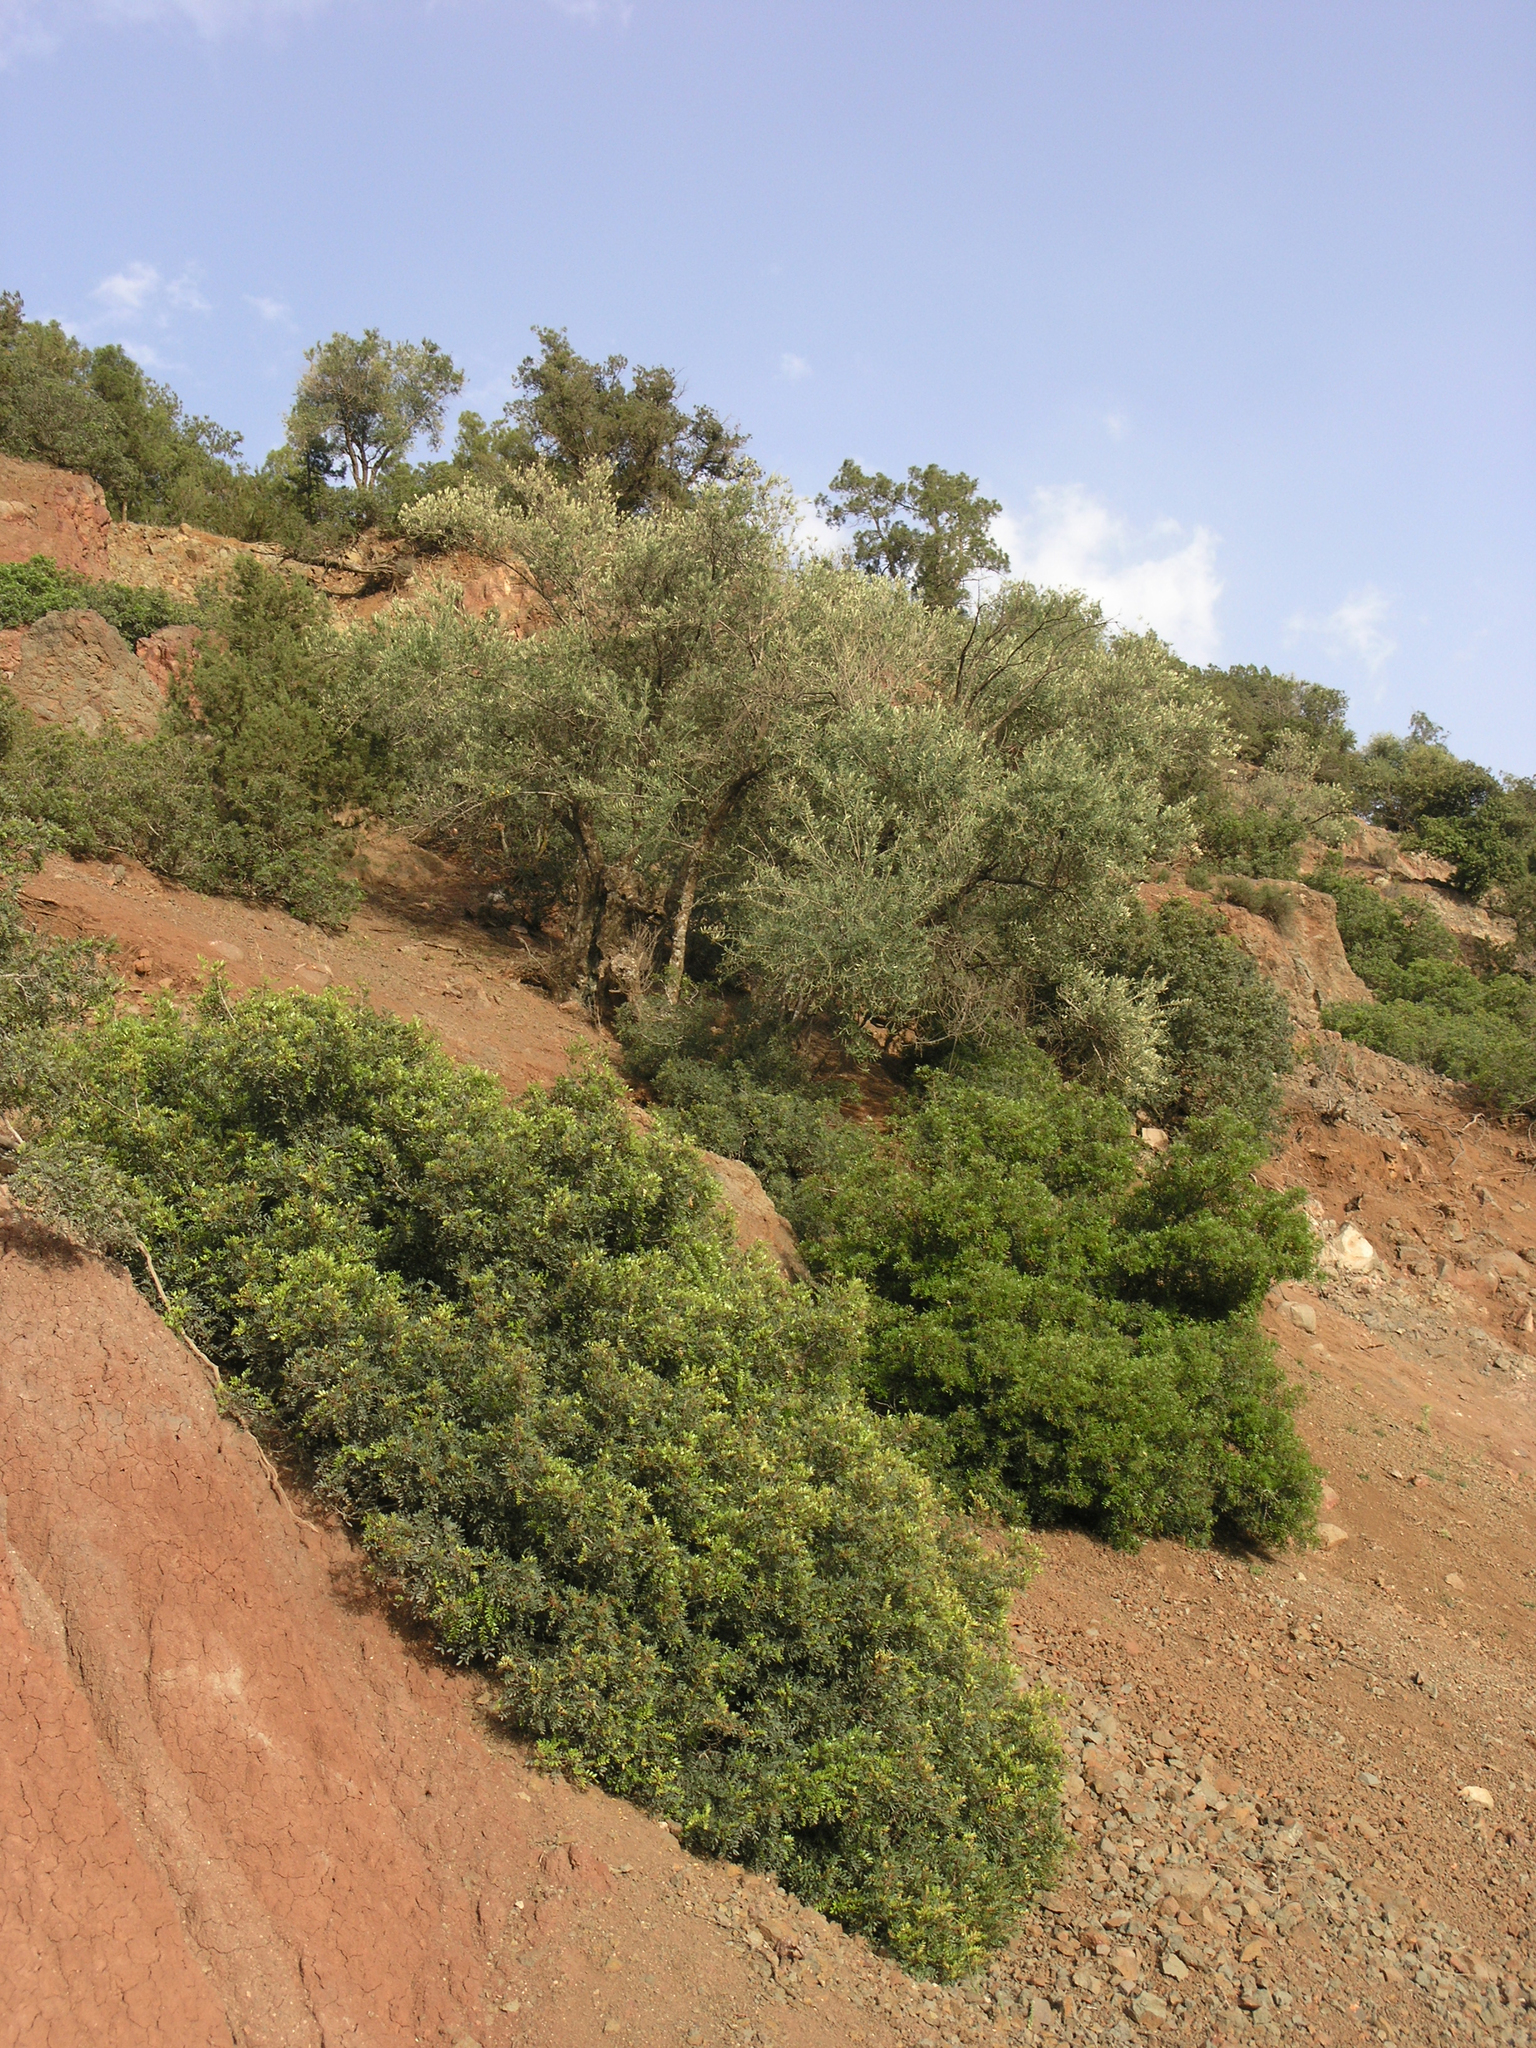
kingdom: Plantae
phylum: Tracheophyta
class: Magnoliopsida
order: Sapindales
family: Anacardiaceae
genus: Pistacia
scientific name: Pistacia lentiscus
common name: Lentisk
